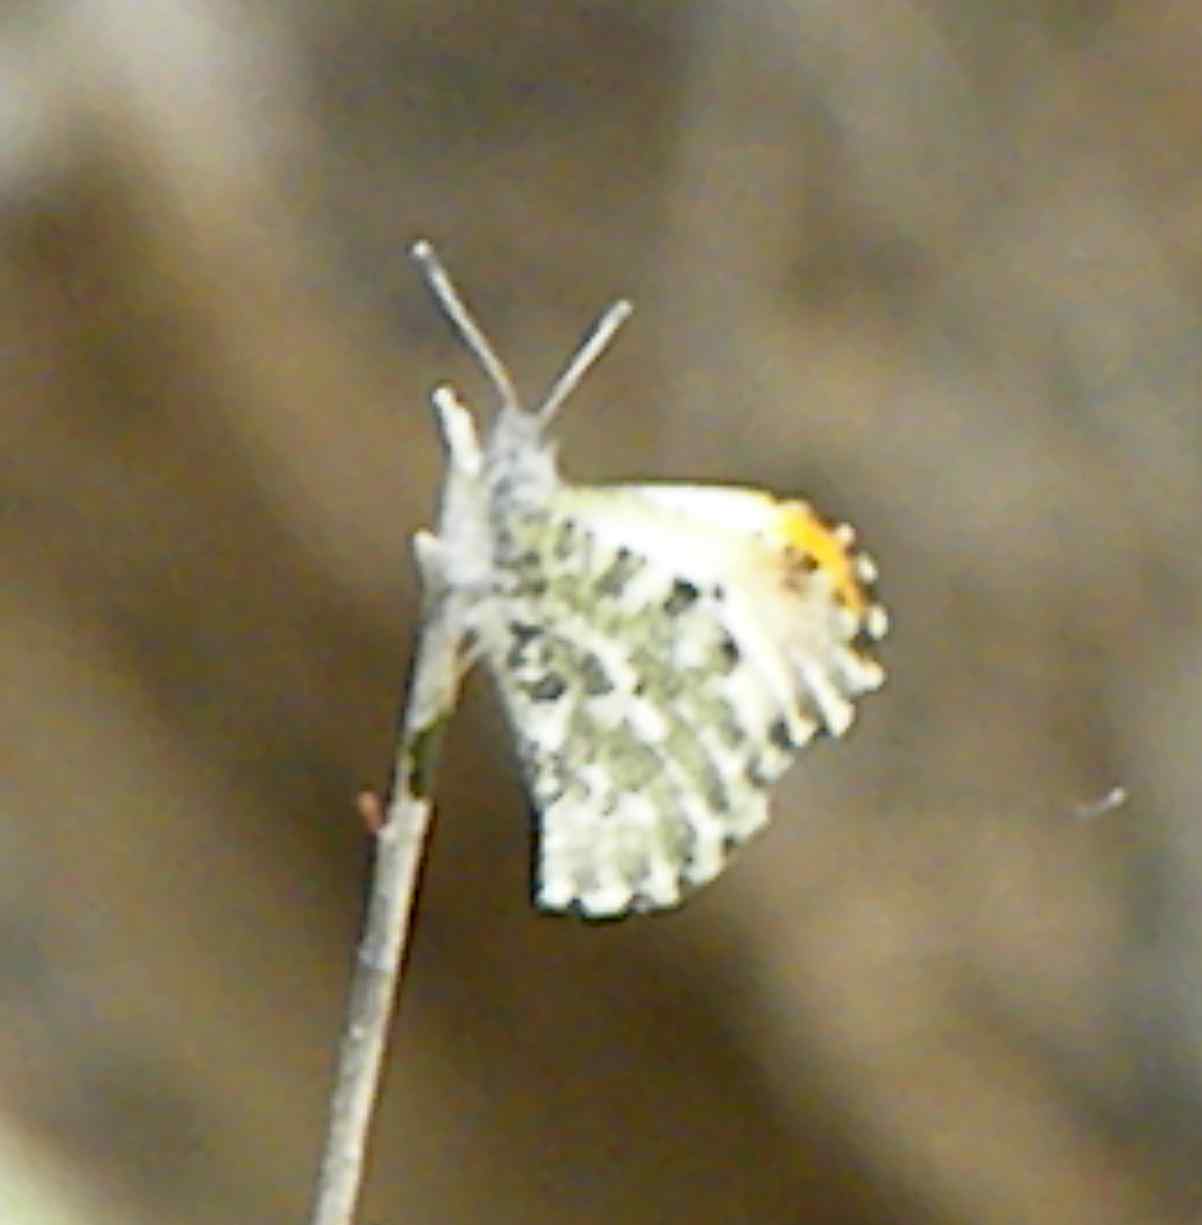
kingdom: Animalia
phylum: Arthropoda
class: Insecta
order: Lepidoptera
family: Pieridae
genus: Anthocharis
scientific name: Anthocharis midea
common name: Falcate orangetip
